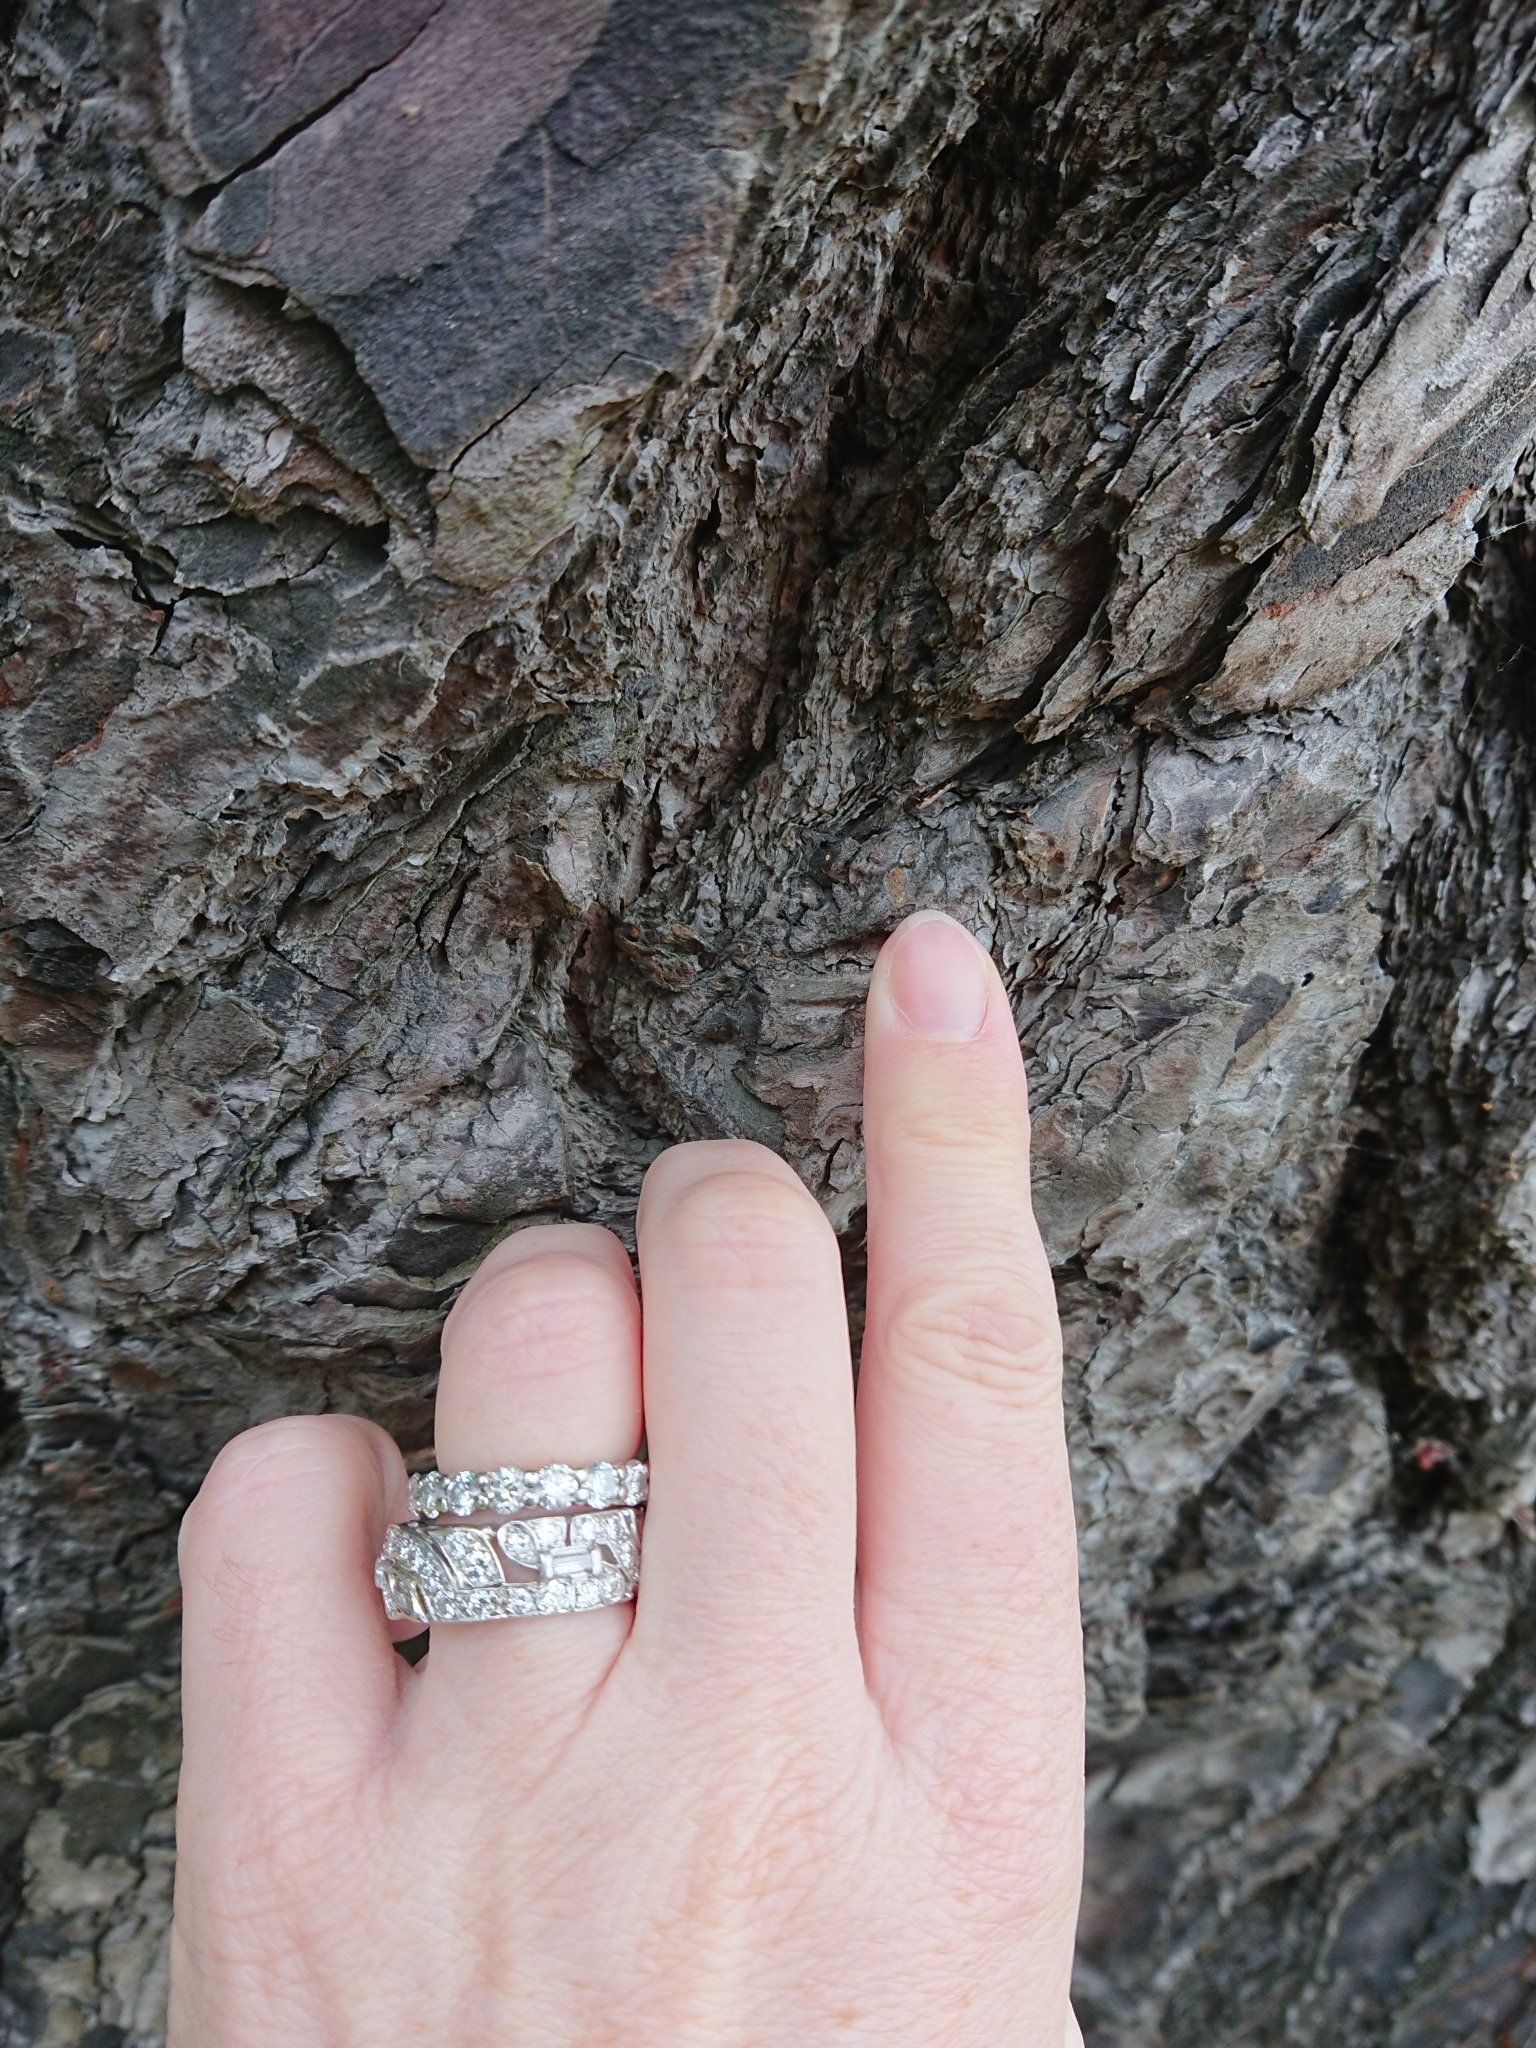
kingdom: Animalia
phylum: Arthropoda
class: Insecta
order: Lepidoptera
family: Tineidae
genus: Erechthias
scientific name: Erechthias macrozyga
